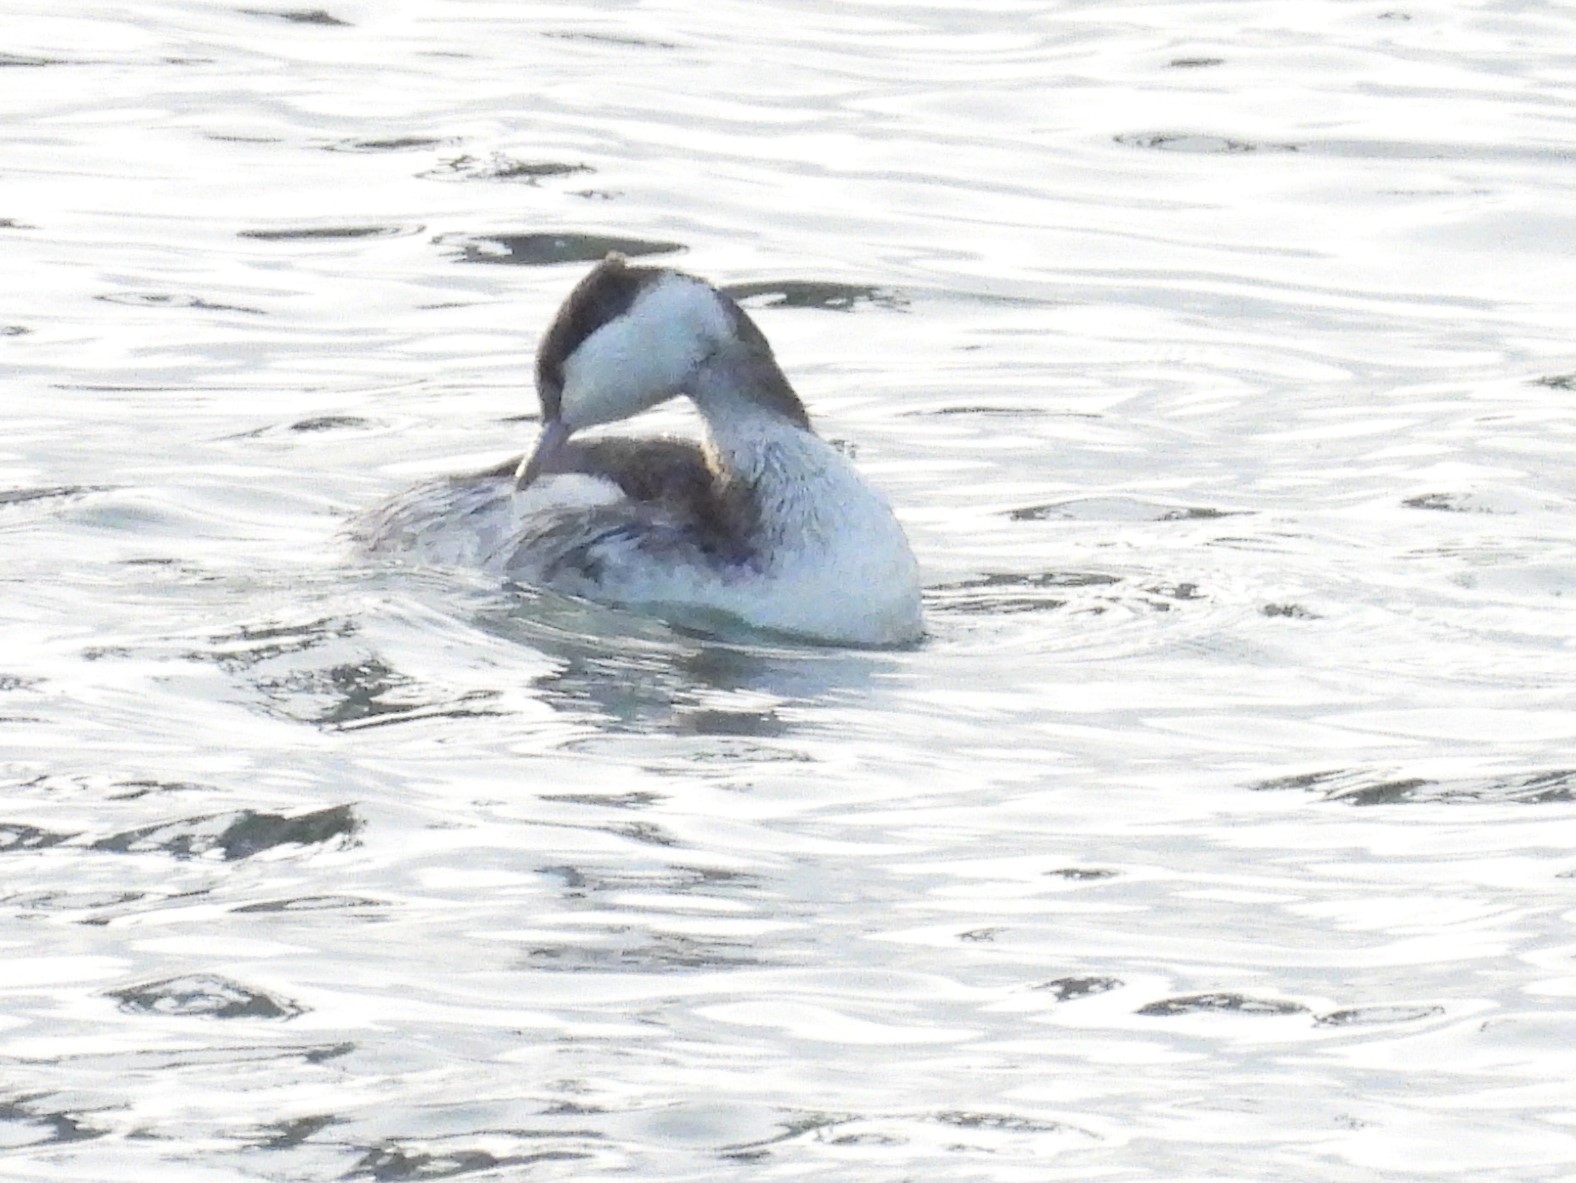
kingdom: Animalia
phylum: Chordata
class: Aves
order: Podicipediformes
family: Podicipedidae
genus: Podiceps
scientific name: Podiceps auritus
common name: Horned grebe
